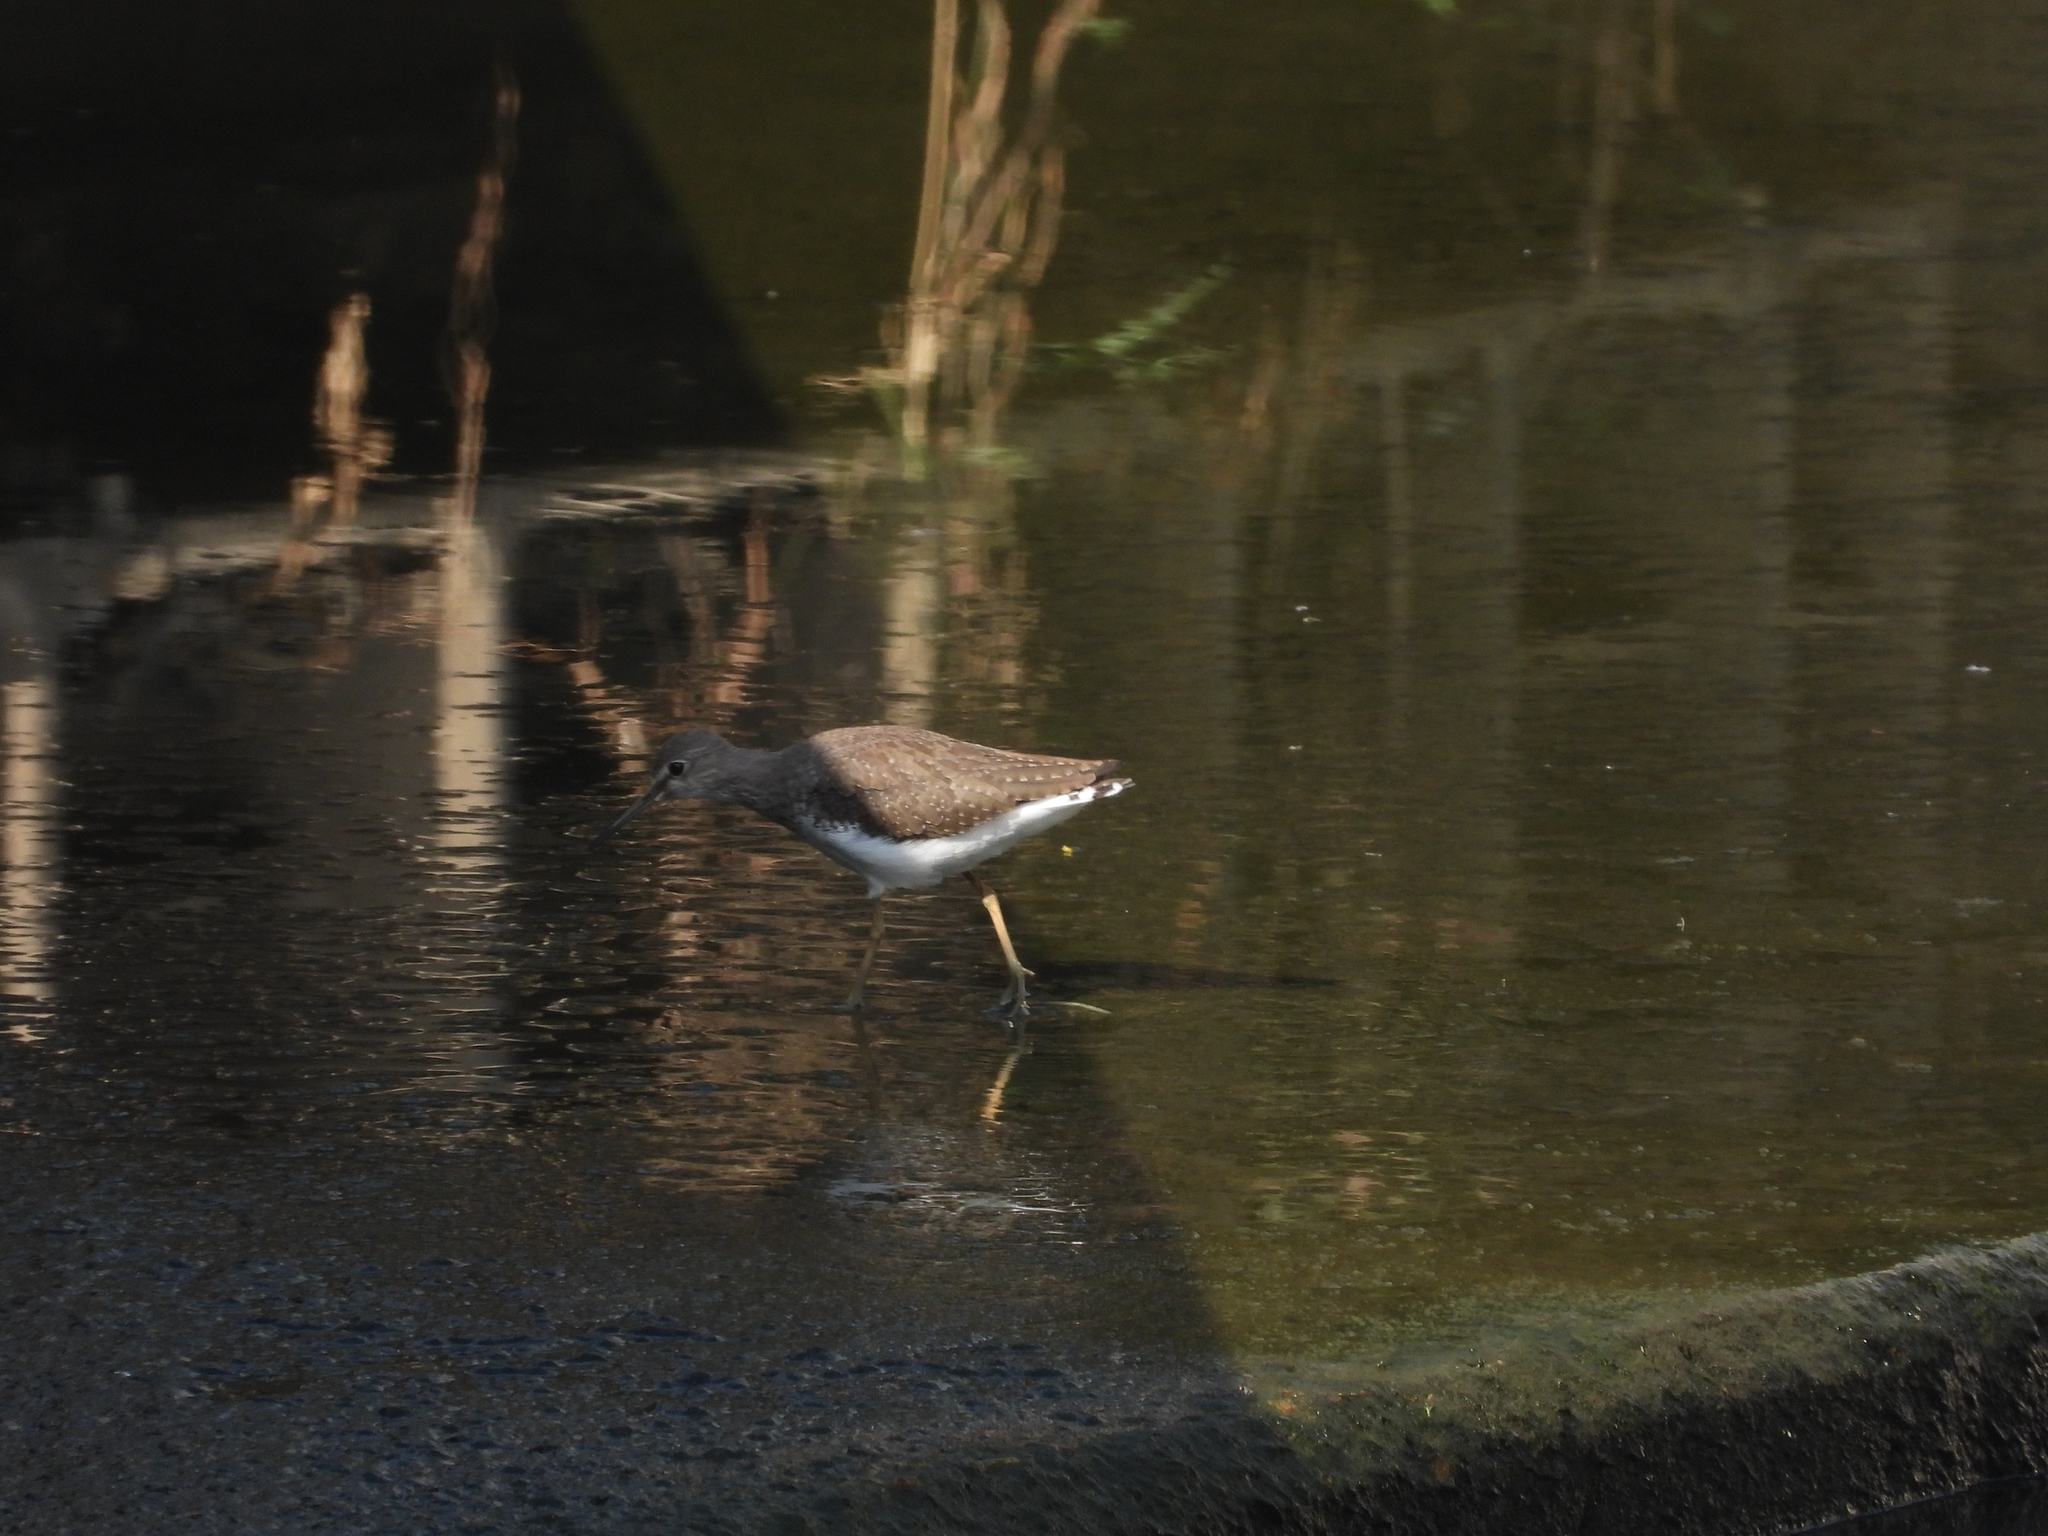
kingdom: Animalia
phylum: Chordata
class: Aves
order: Charadriiformes
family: Scolopacidae
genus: Tringa
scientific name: Tringa ochropus
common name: Green sandpiper
